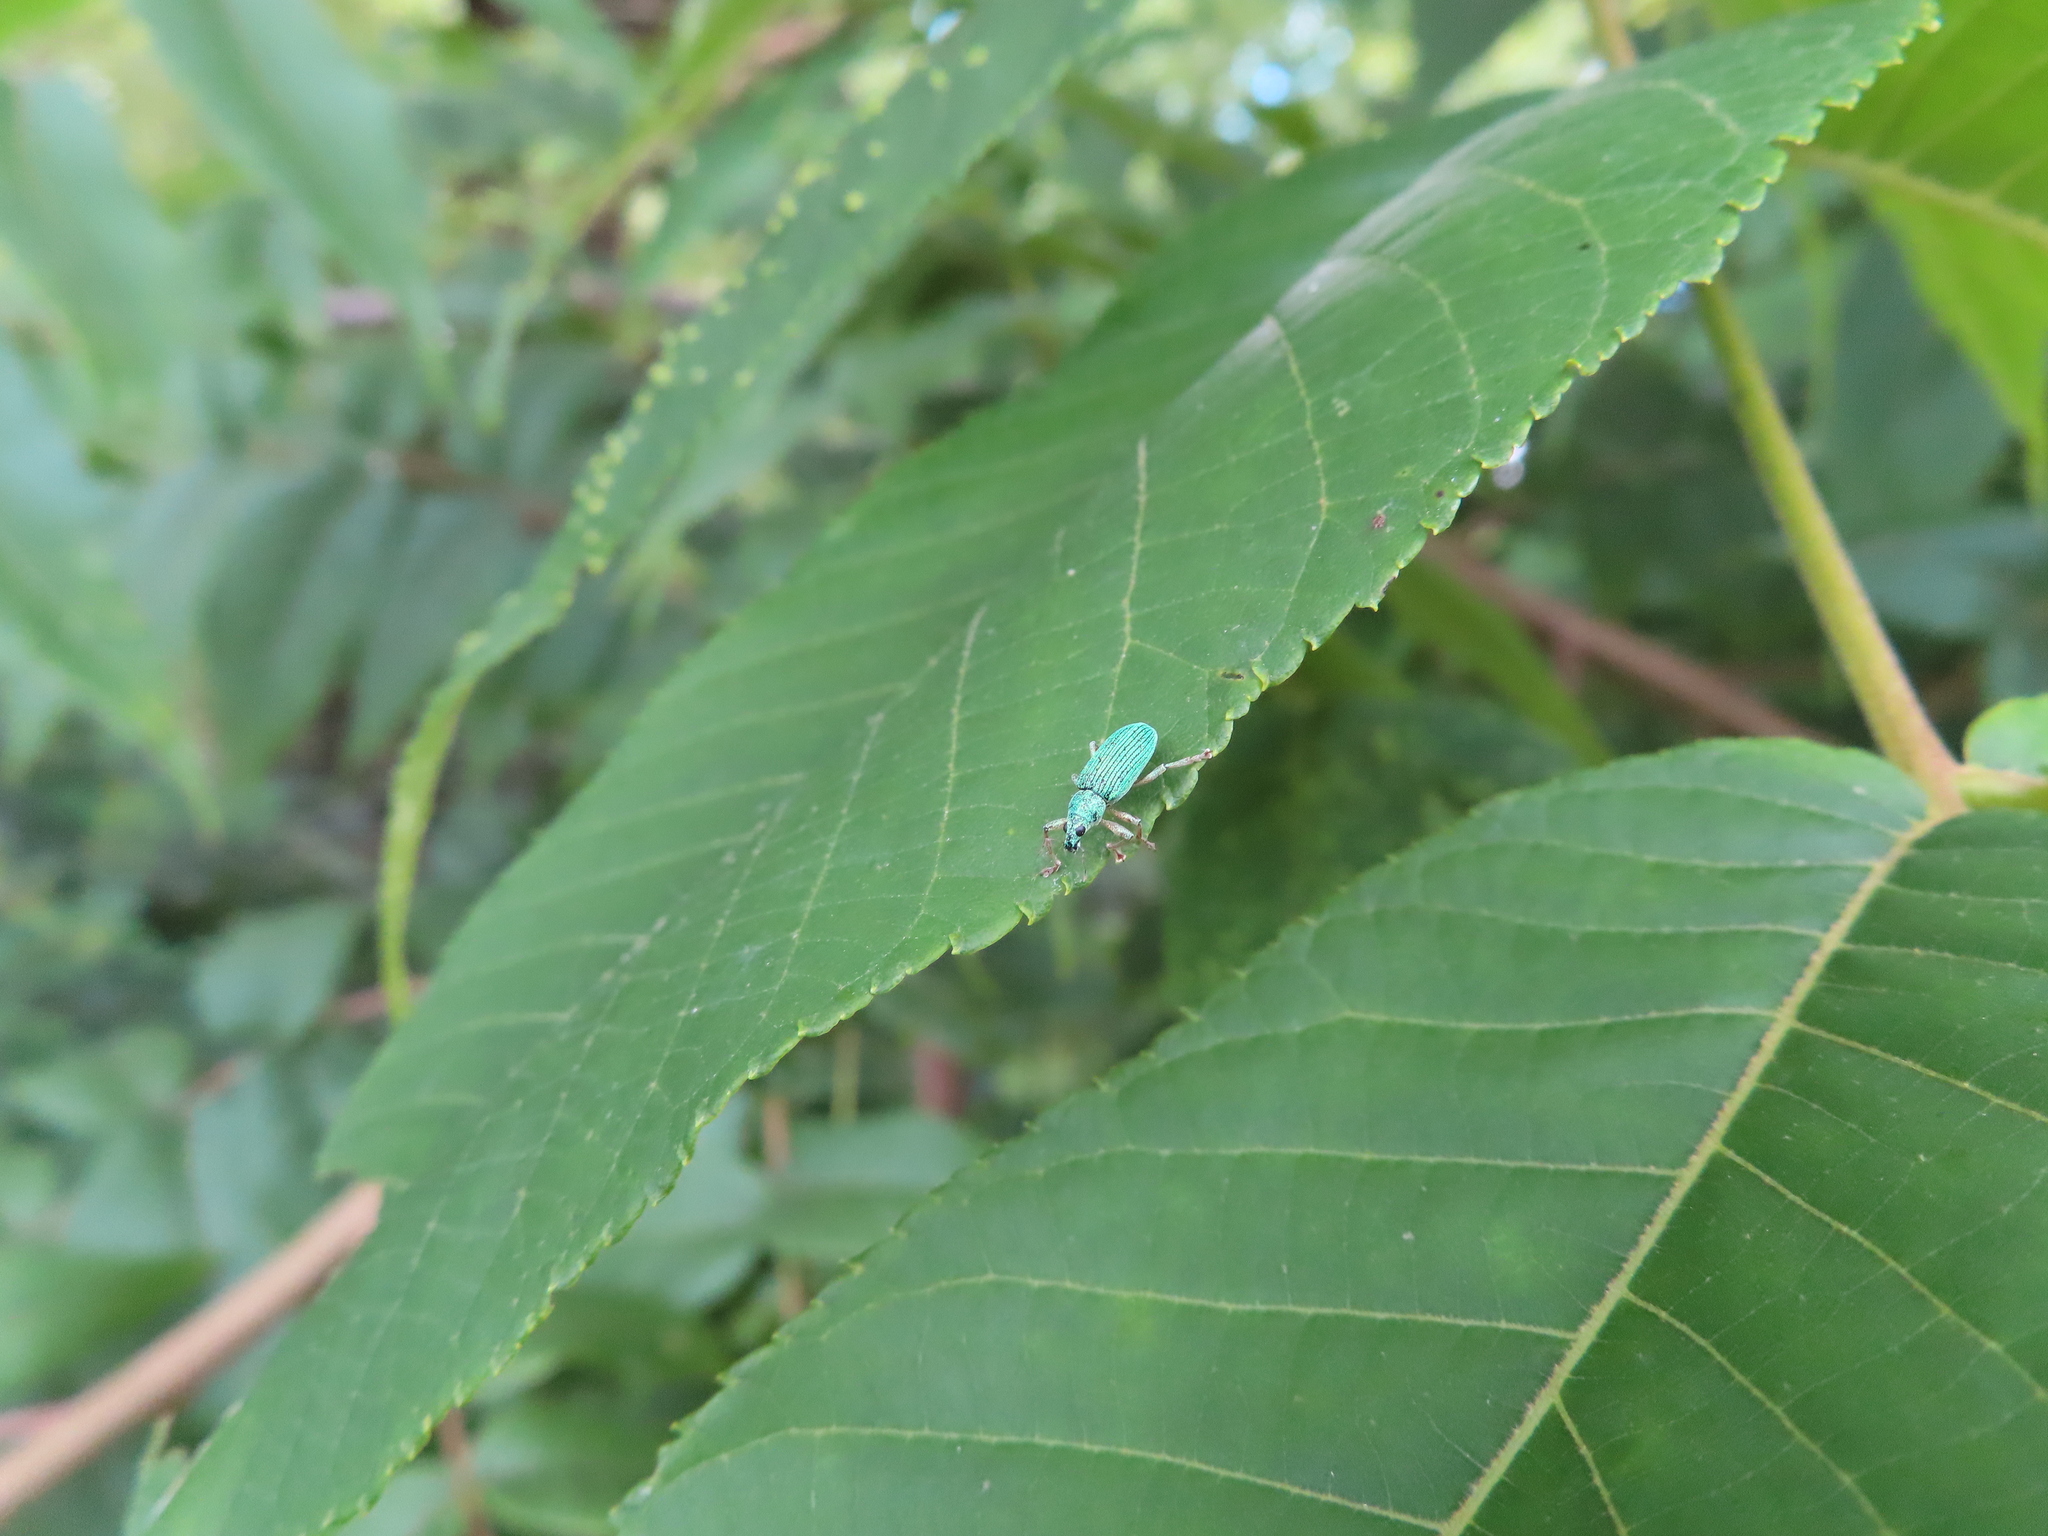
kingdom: Animalia
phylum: Arthropoda
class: Insecta
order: Coleoptera
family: Curculionidae
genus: Polydrusus
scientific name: Polydrusus formosus
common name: Weevil
